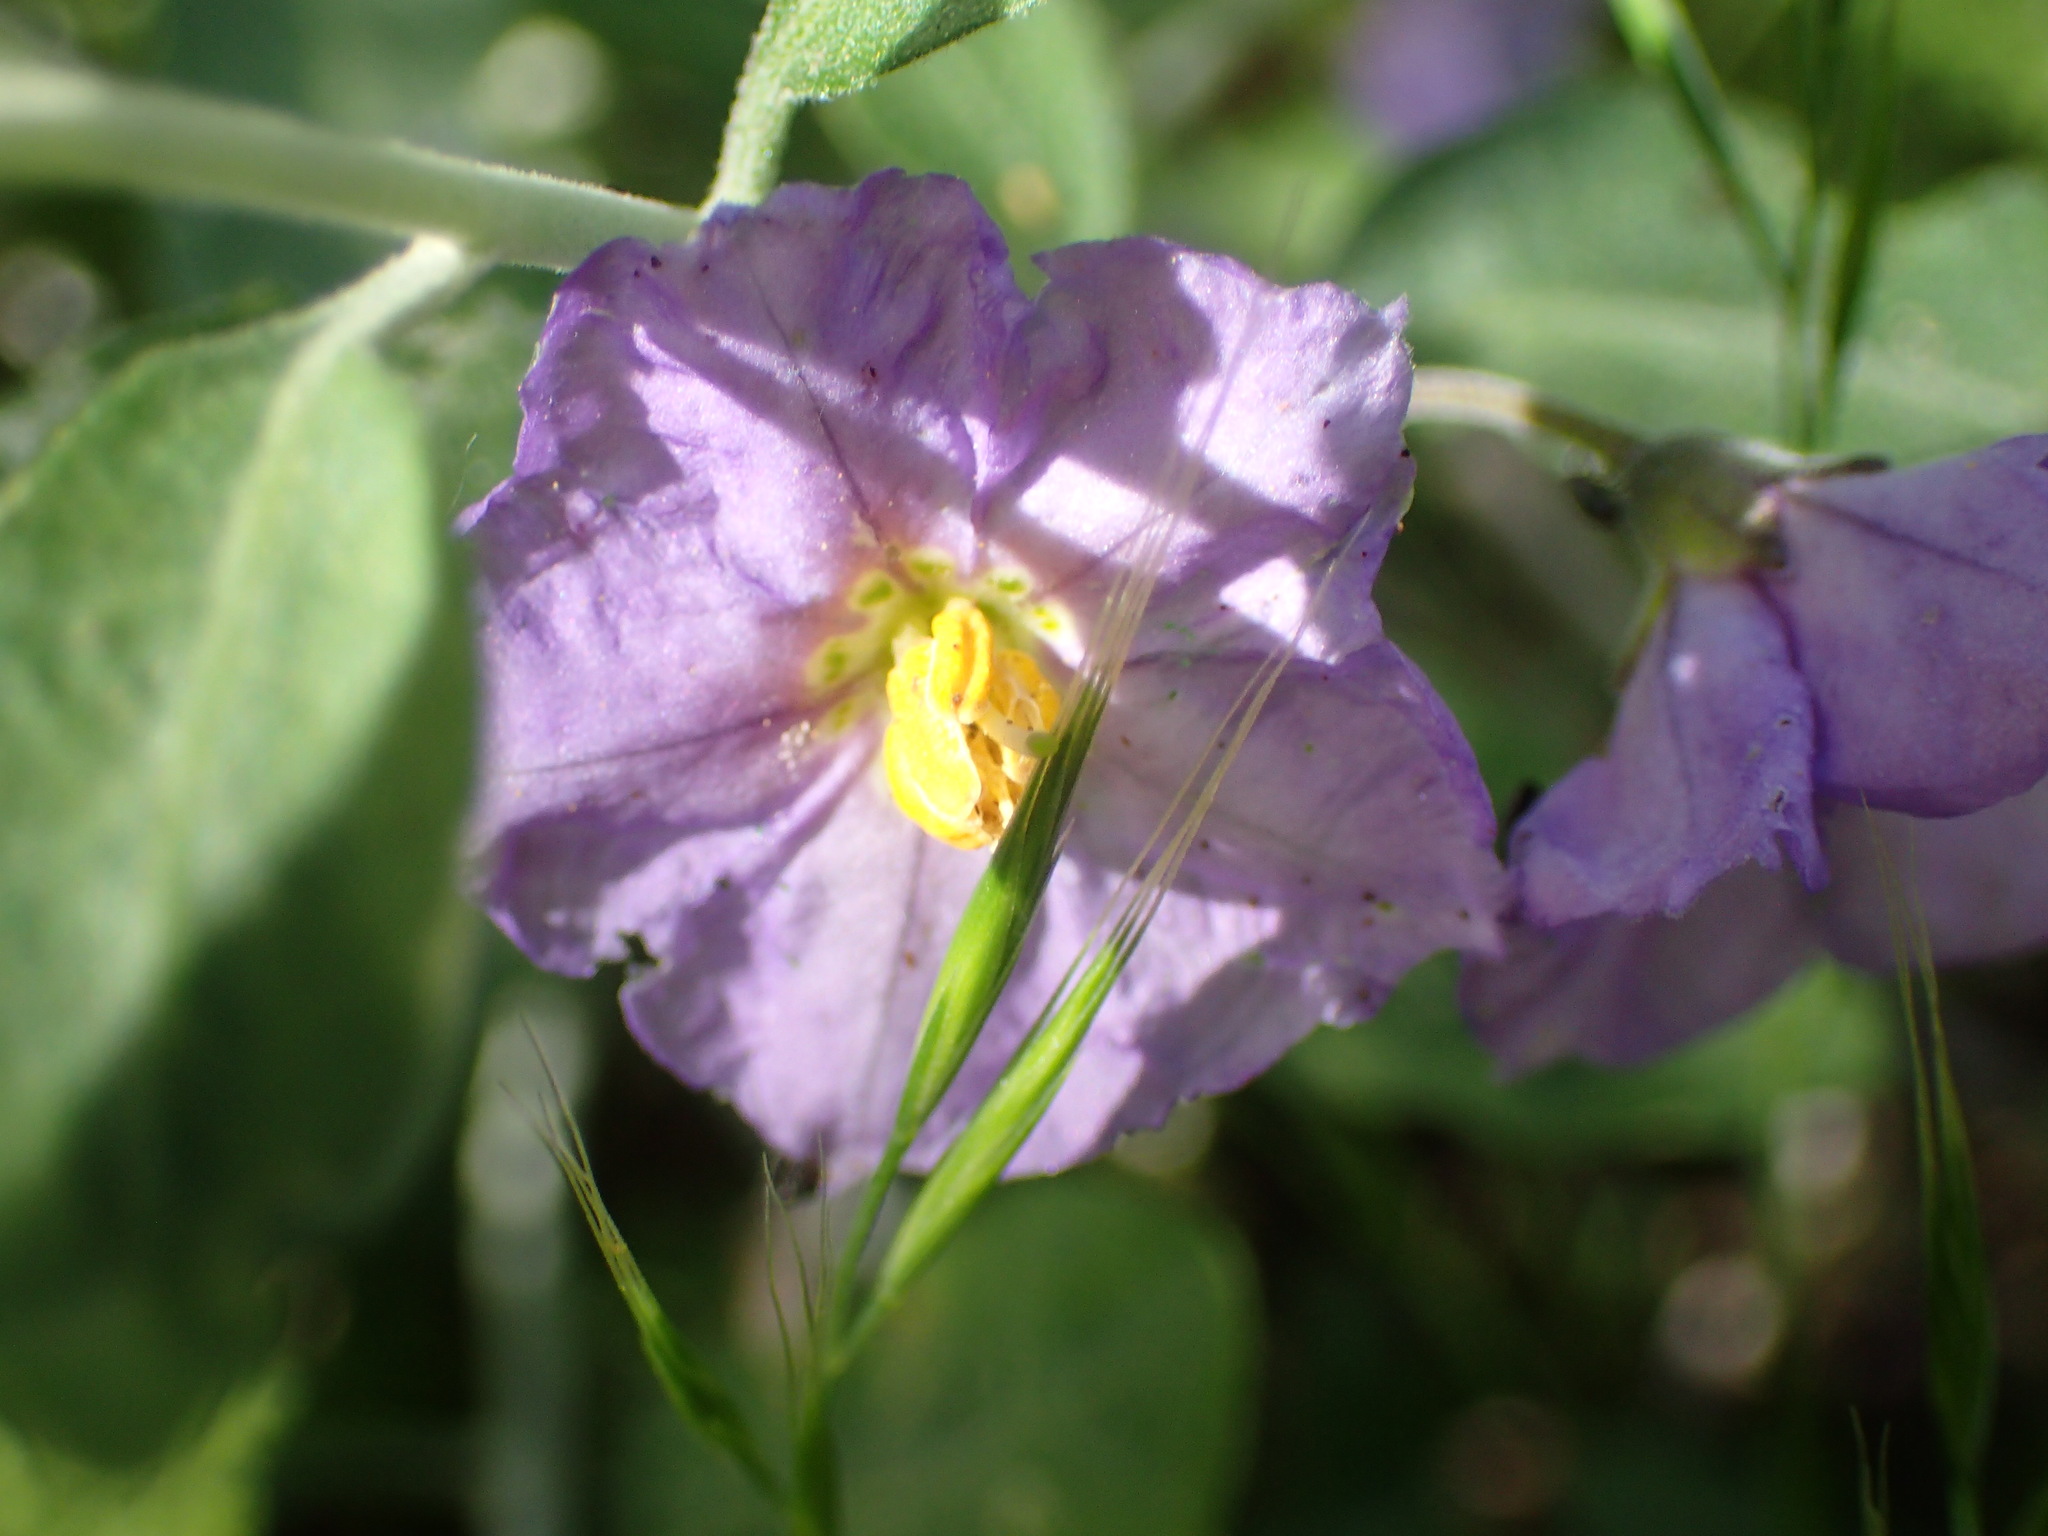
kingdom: Plantae
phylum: Tracheophyta
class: Magnoliopsida
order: Solanales
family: Solanaceae
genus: Solanum
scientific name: Solanum umbelliferum
